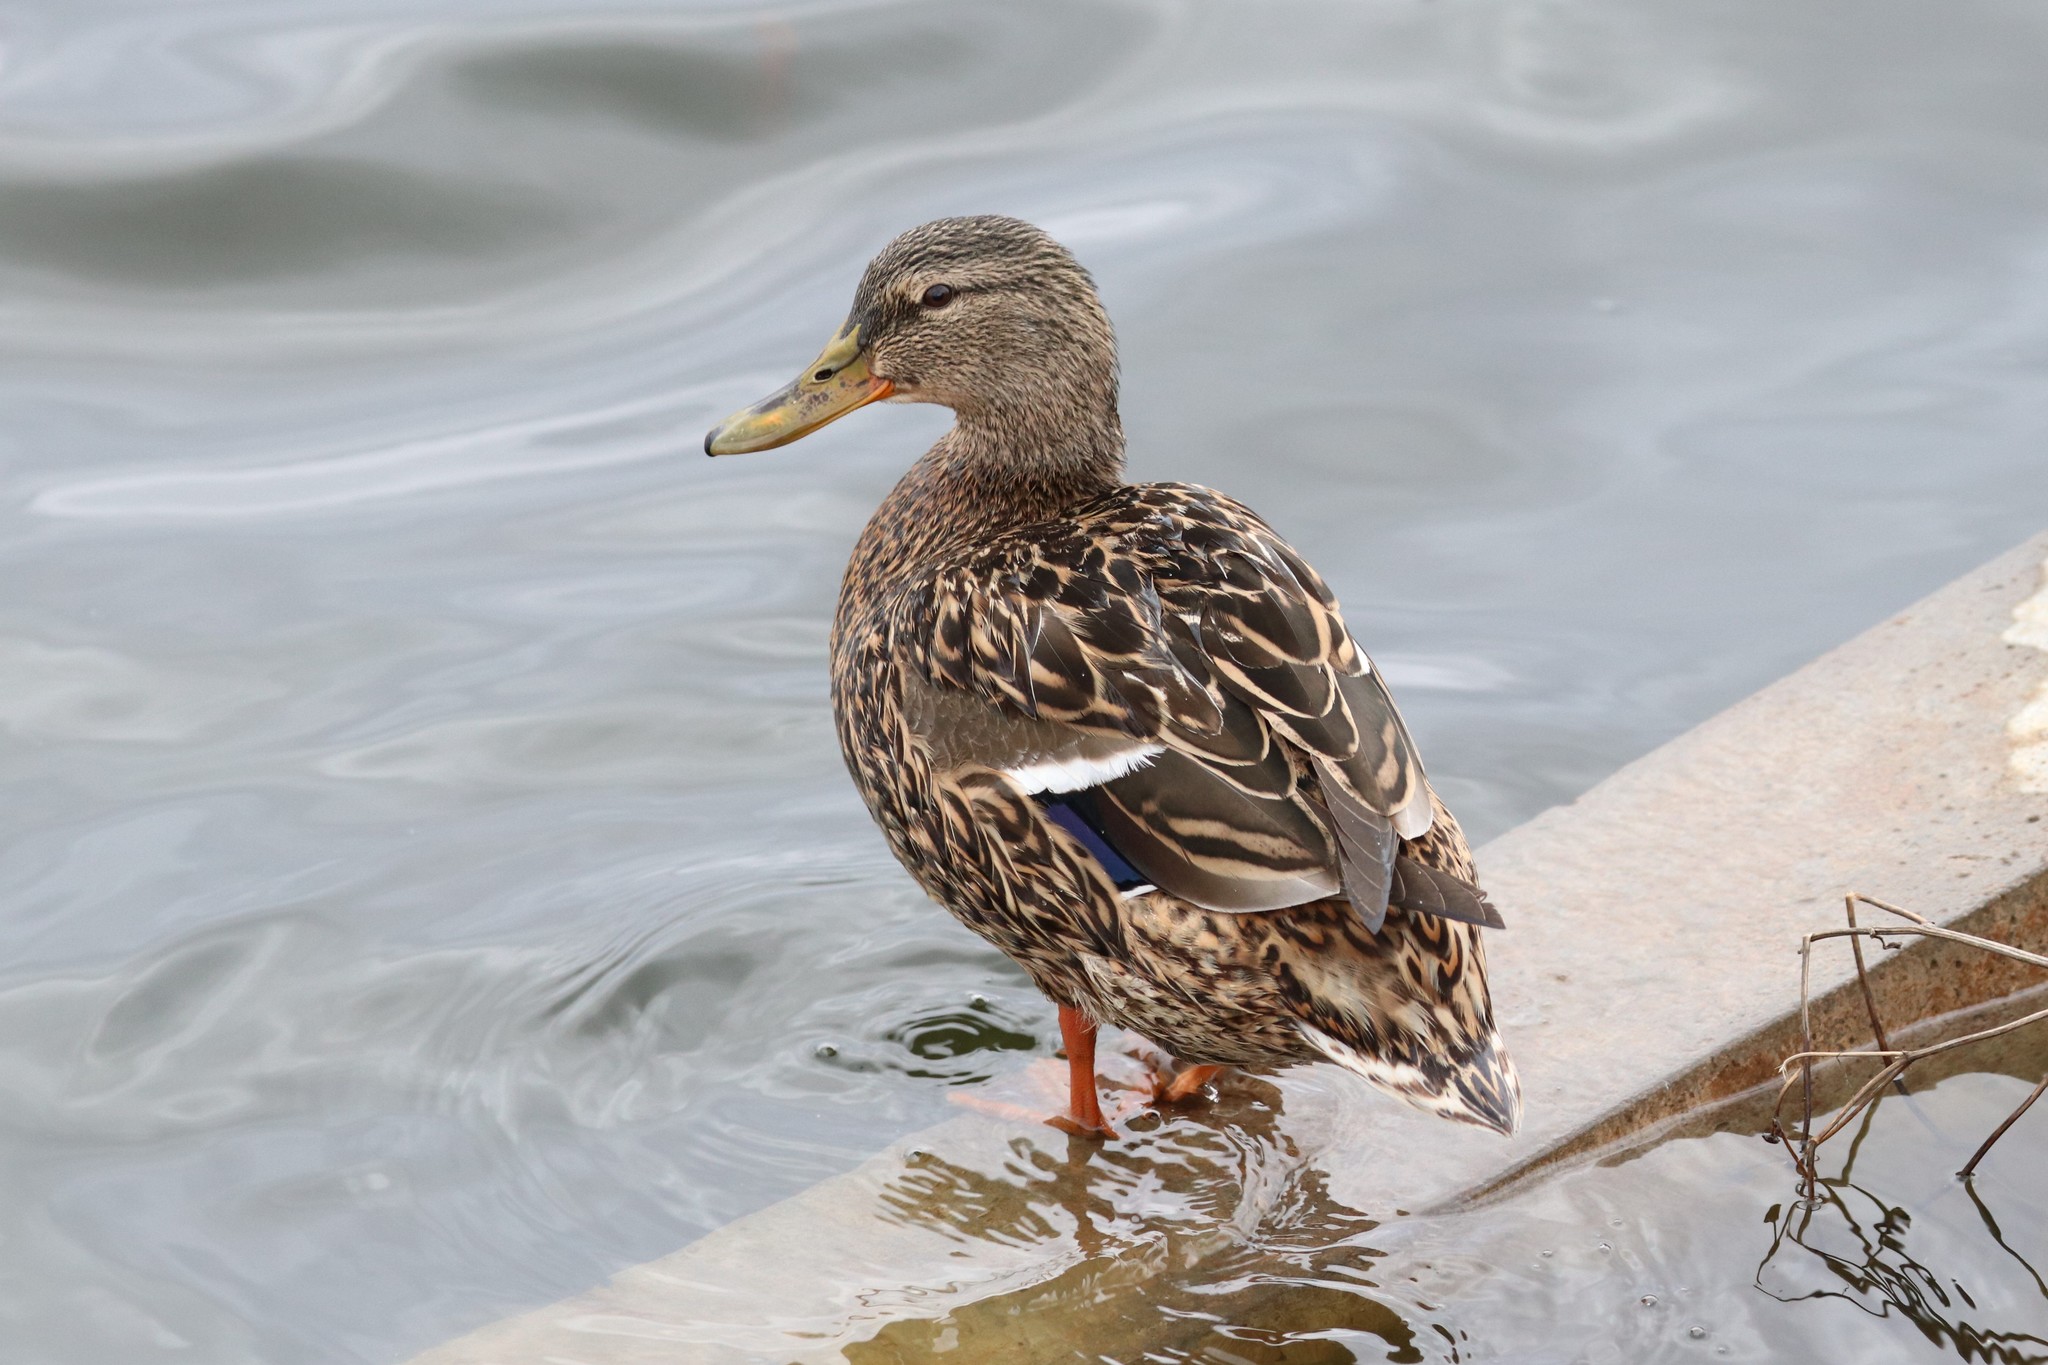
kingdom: Animalia
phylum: Chordata
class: Aves
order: Anseriformes
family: Anatidae
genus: Anas
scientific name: Anas platyrhynchos
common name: Mallard
